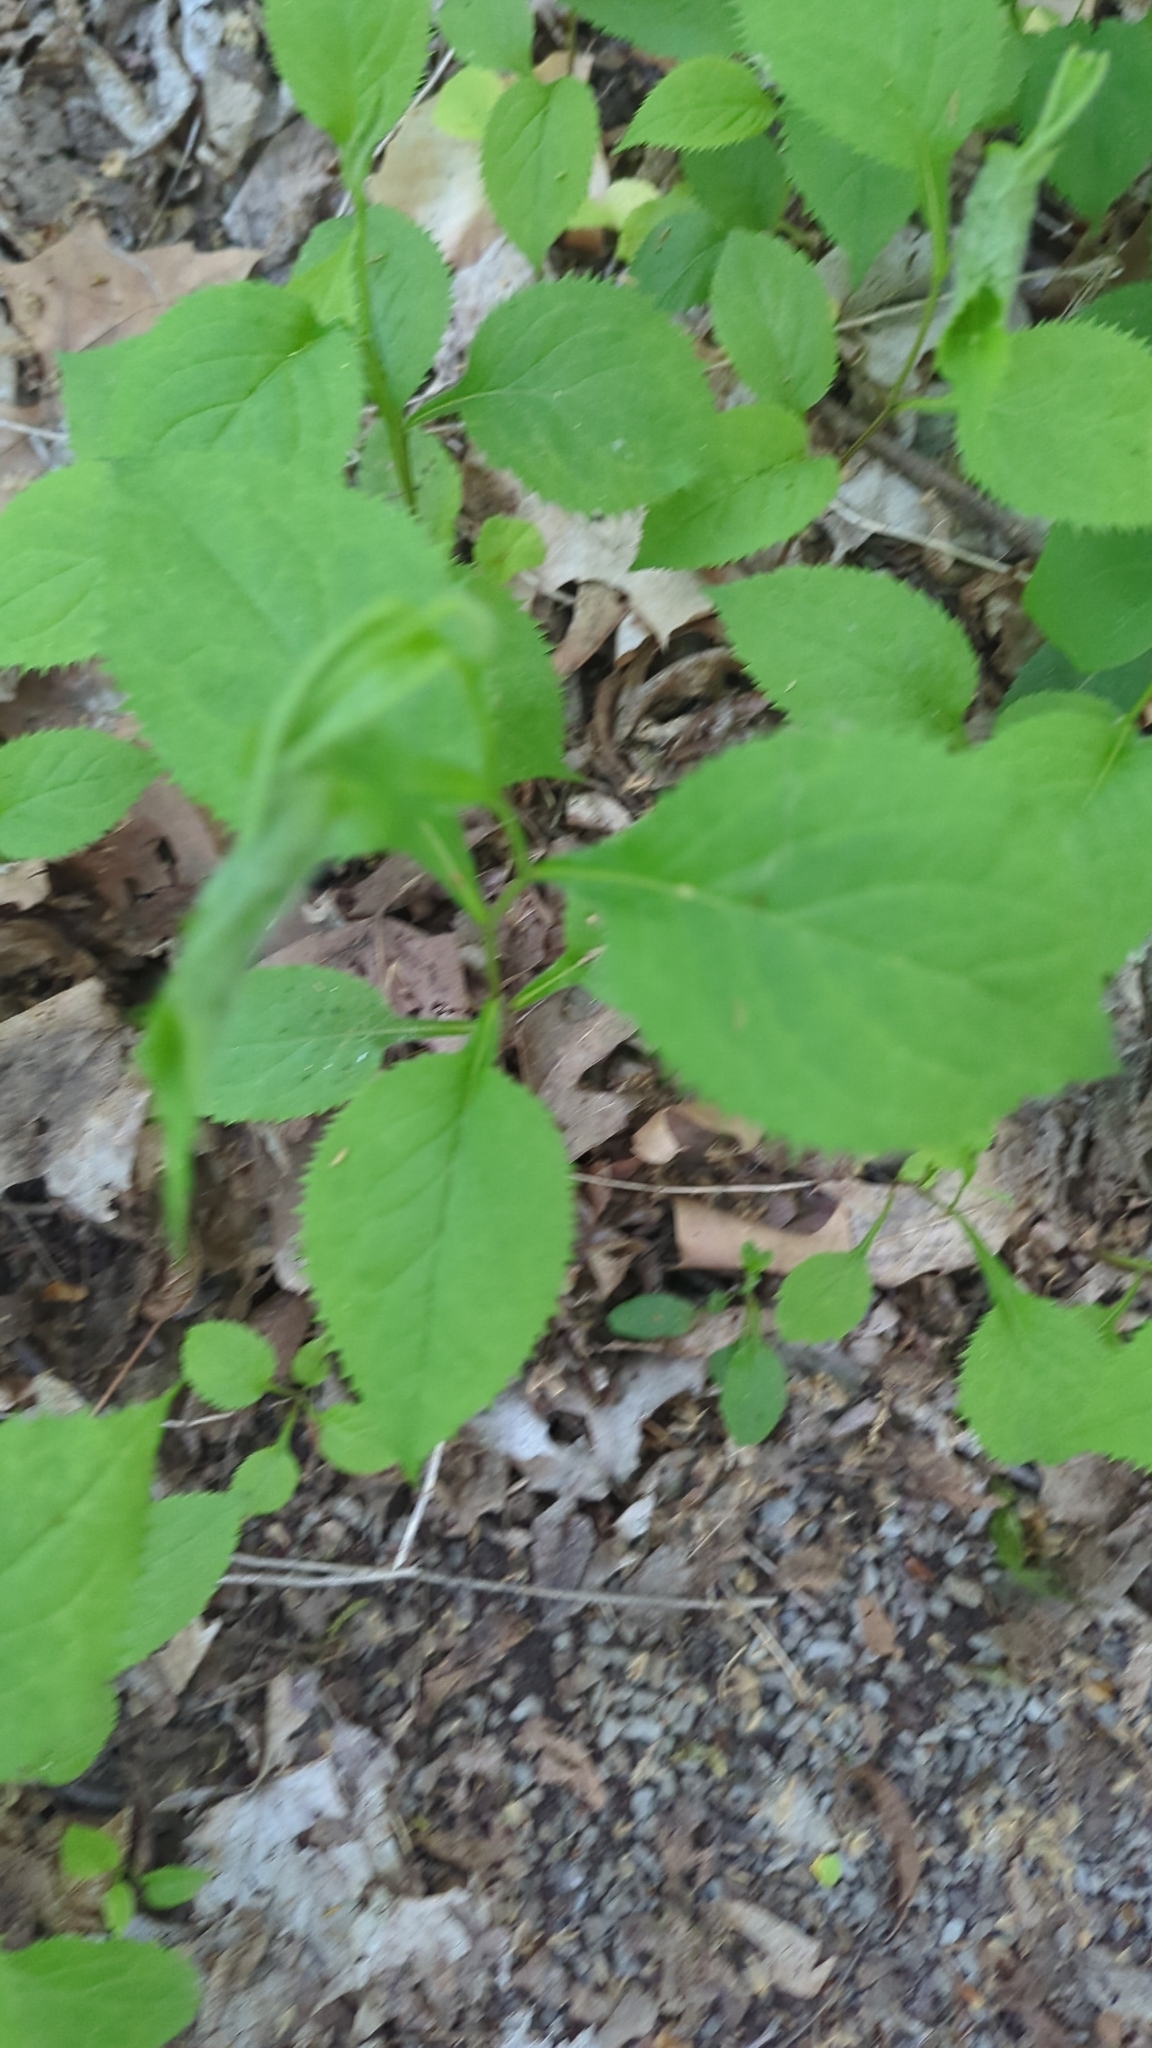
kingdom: Plantae
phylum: Tracheophyta
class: Magnoliopsida
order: Asterales
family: Asteraceae
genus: Solidago
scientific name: Solidago flexicaulis
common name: Zig-zag goldenrod
